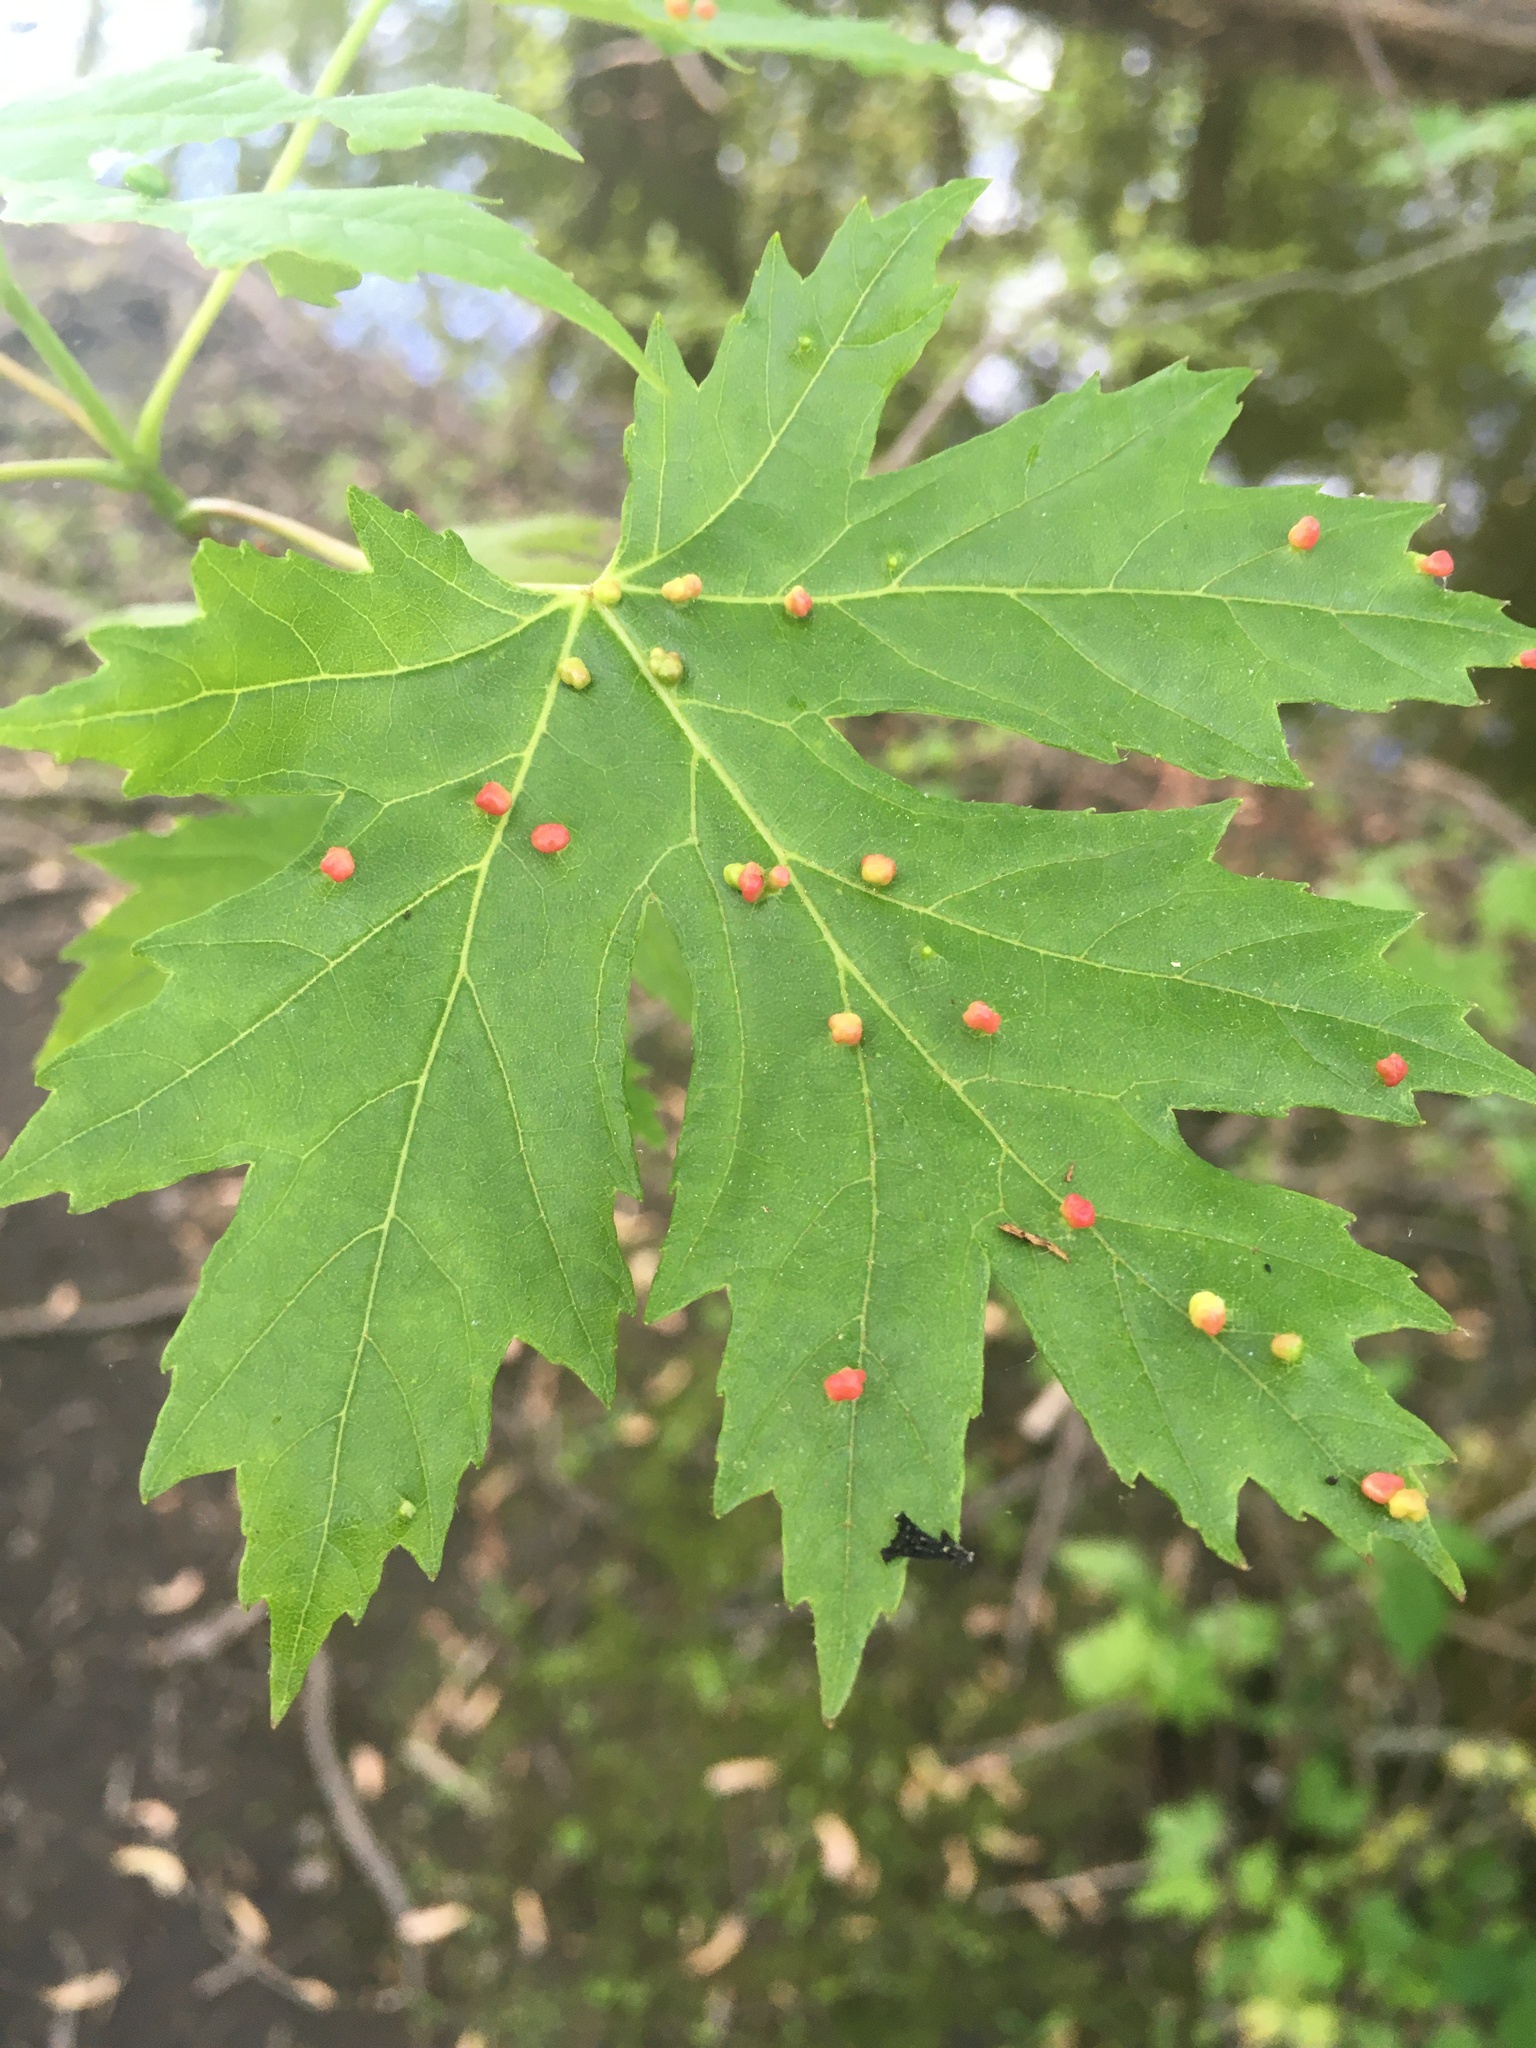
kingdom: Animalia
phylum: Arthropoda
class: Arachnida
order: Trombidiformes
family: Eriophyidae
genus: Vasates
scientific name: Vasates quadripedes
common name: Maple bladder gall mite
